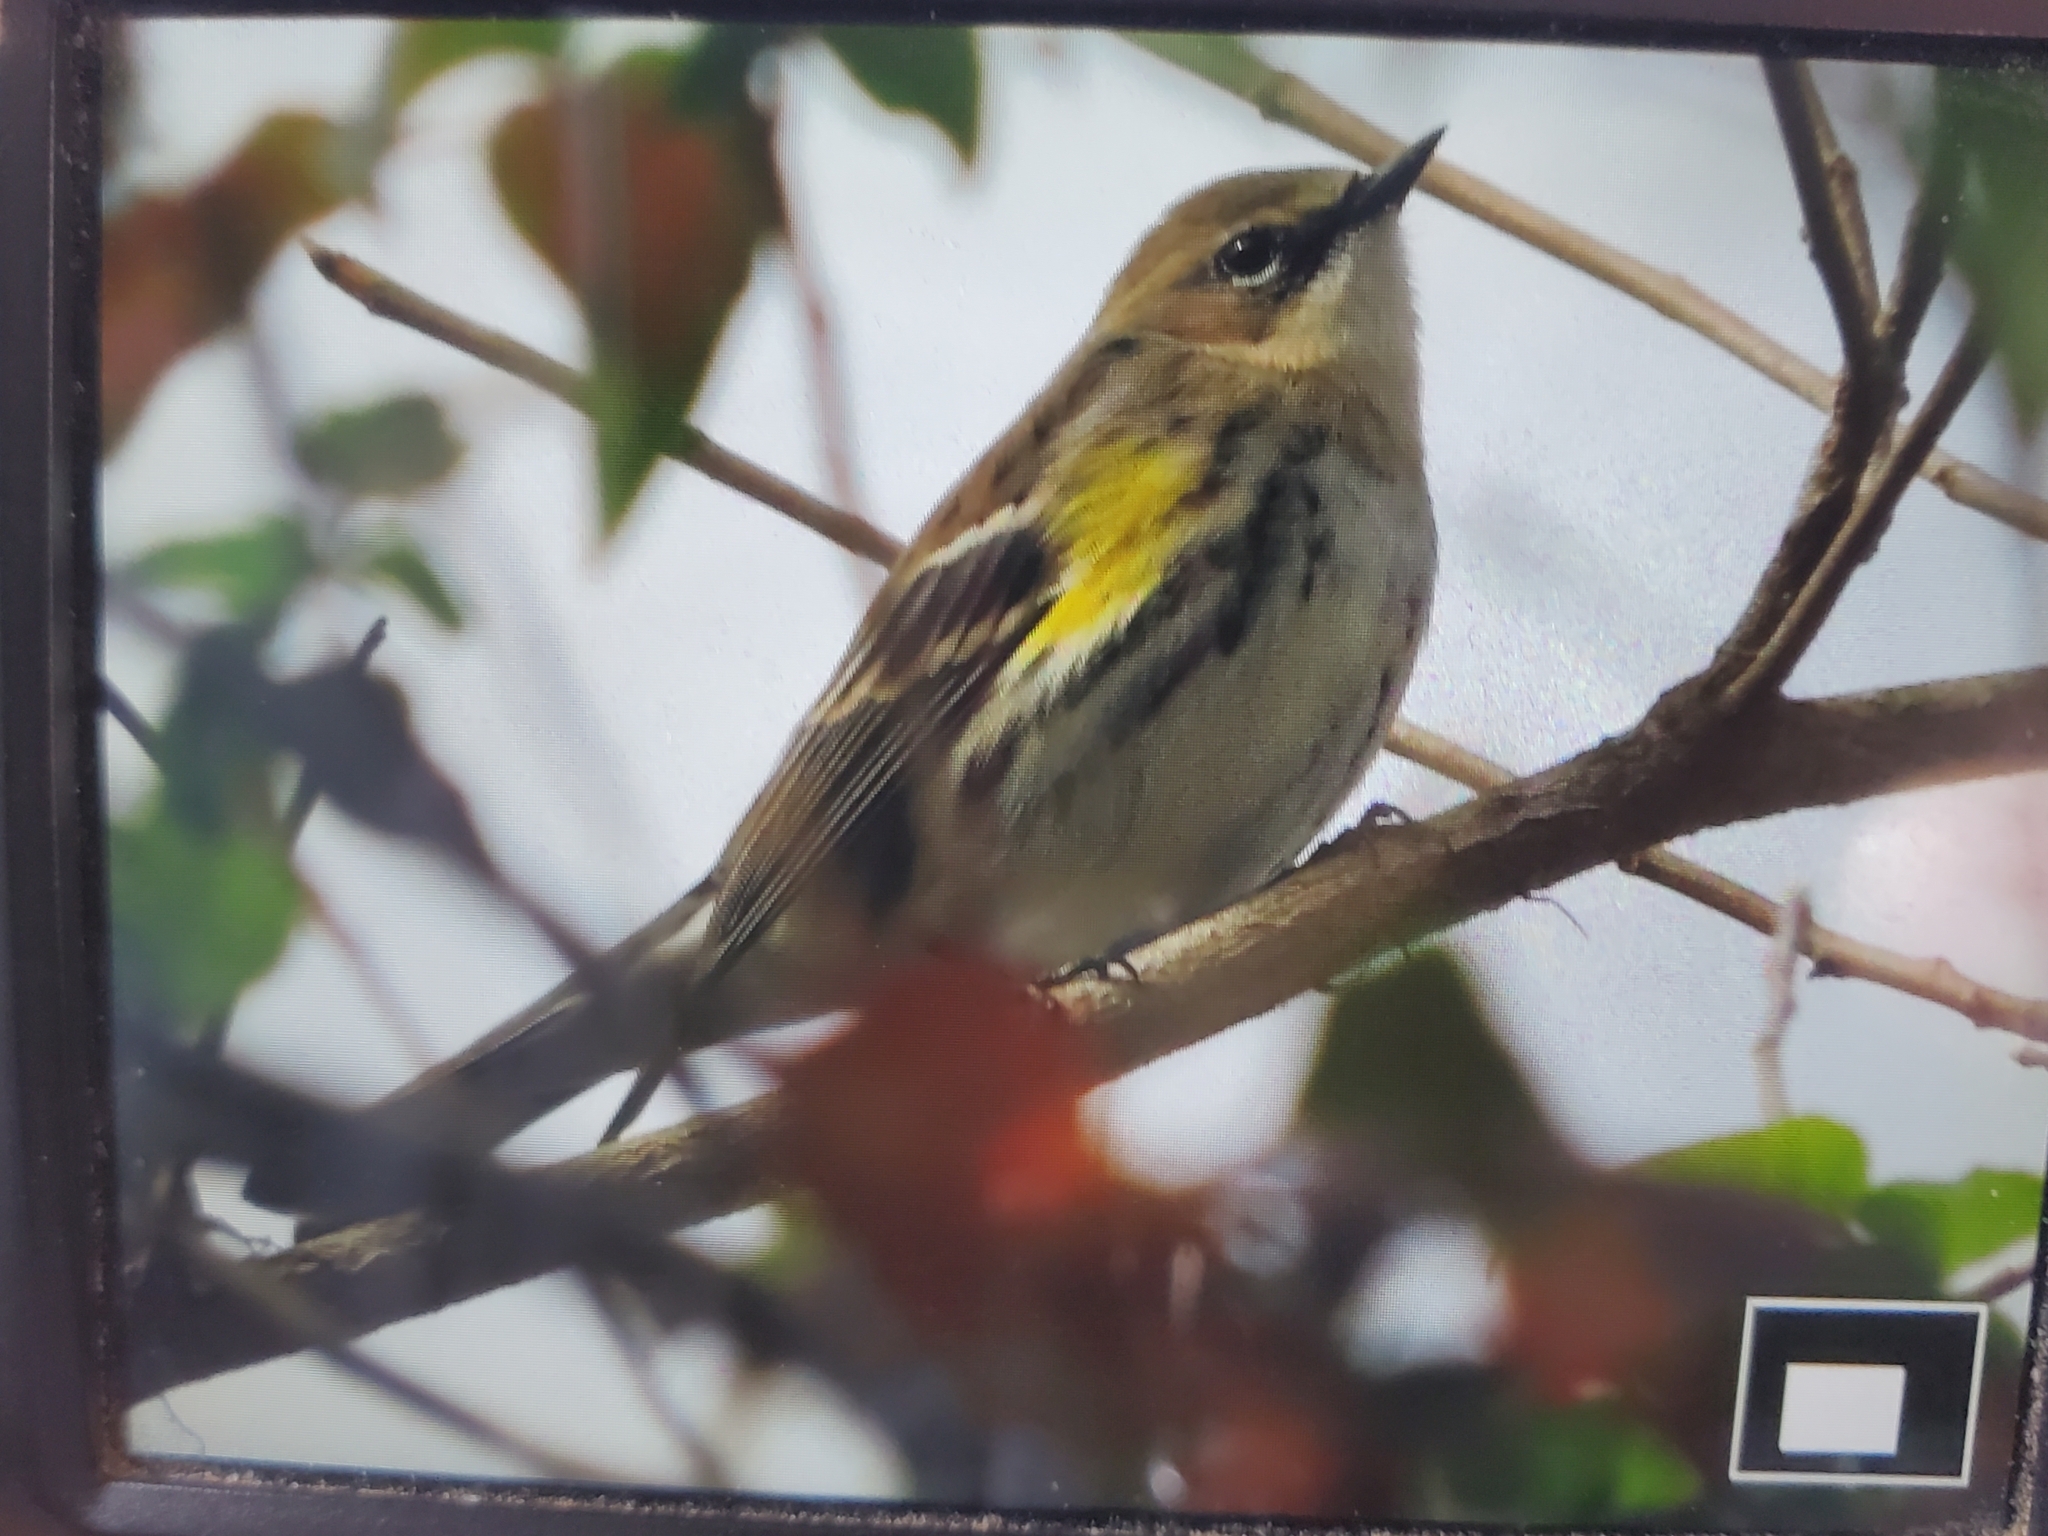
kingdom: Animalia
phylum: Chordata
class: Aves
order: Passeriformes
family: Parulidae
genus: Setophaga
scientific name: Setophaga coronata
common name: Myrtle warbler
